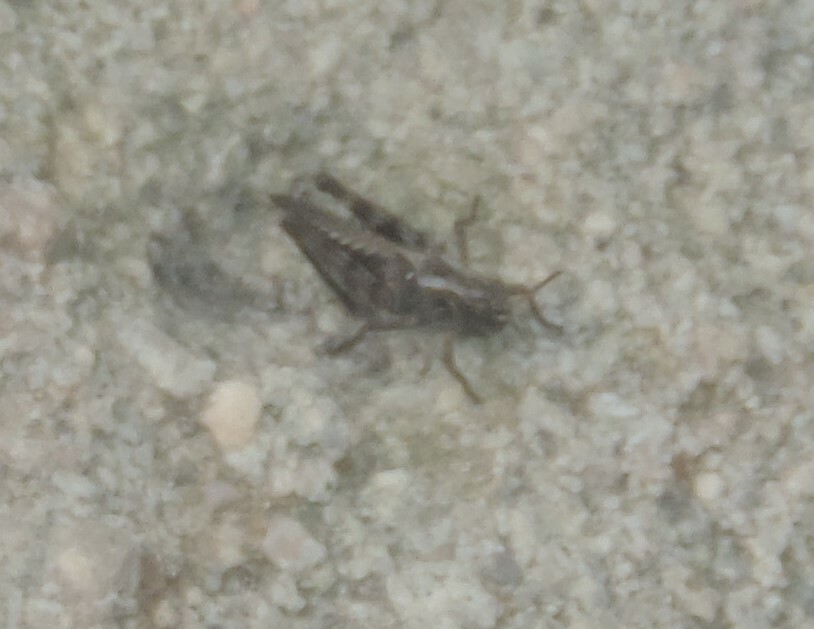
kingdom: Animalia
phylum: Arthropoda
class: Insecta
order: Orthoptera
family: Acrididae
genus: Camnula
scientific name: Camnula pellucida
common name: Clear-winged grasshopper
